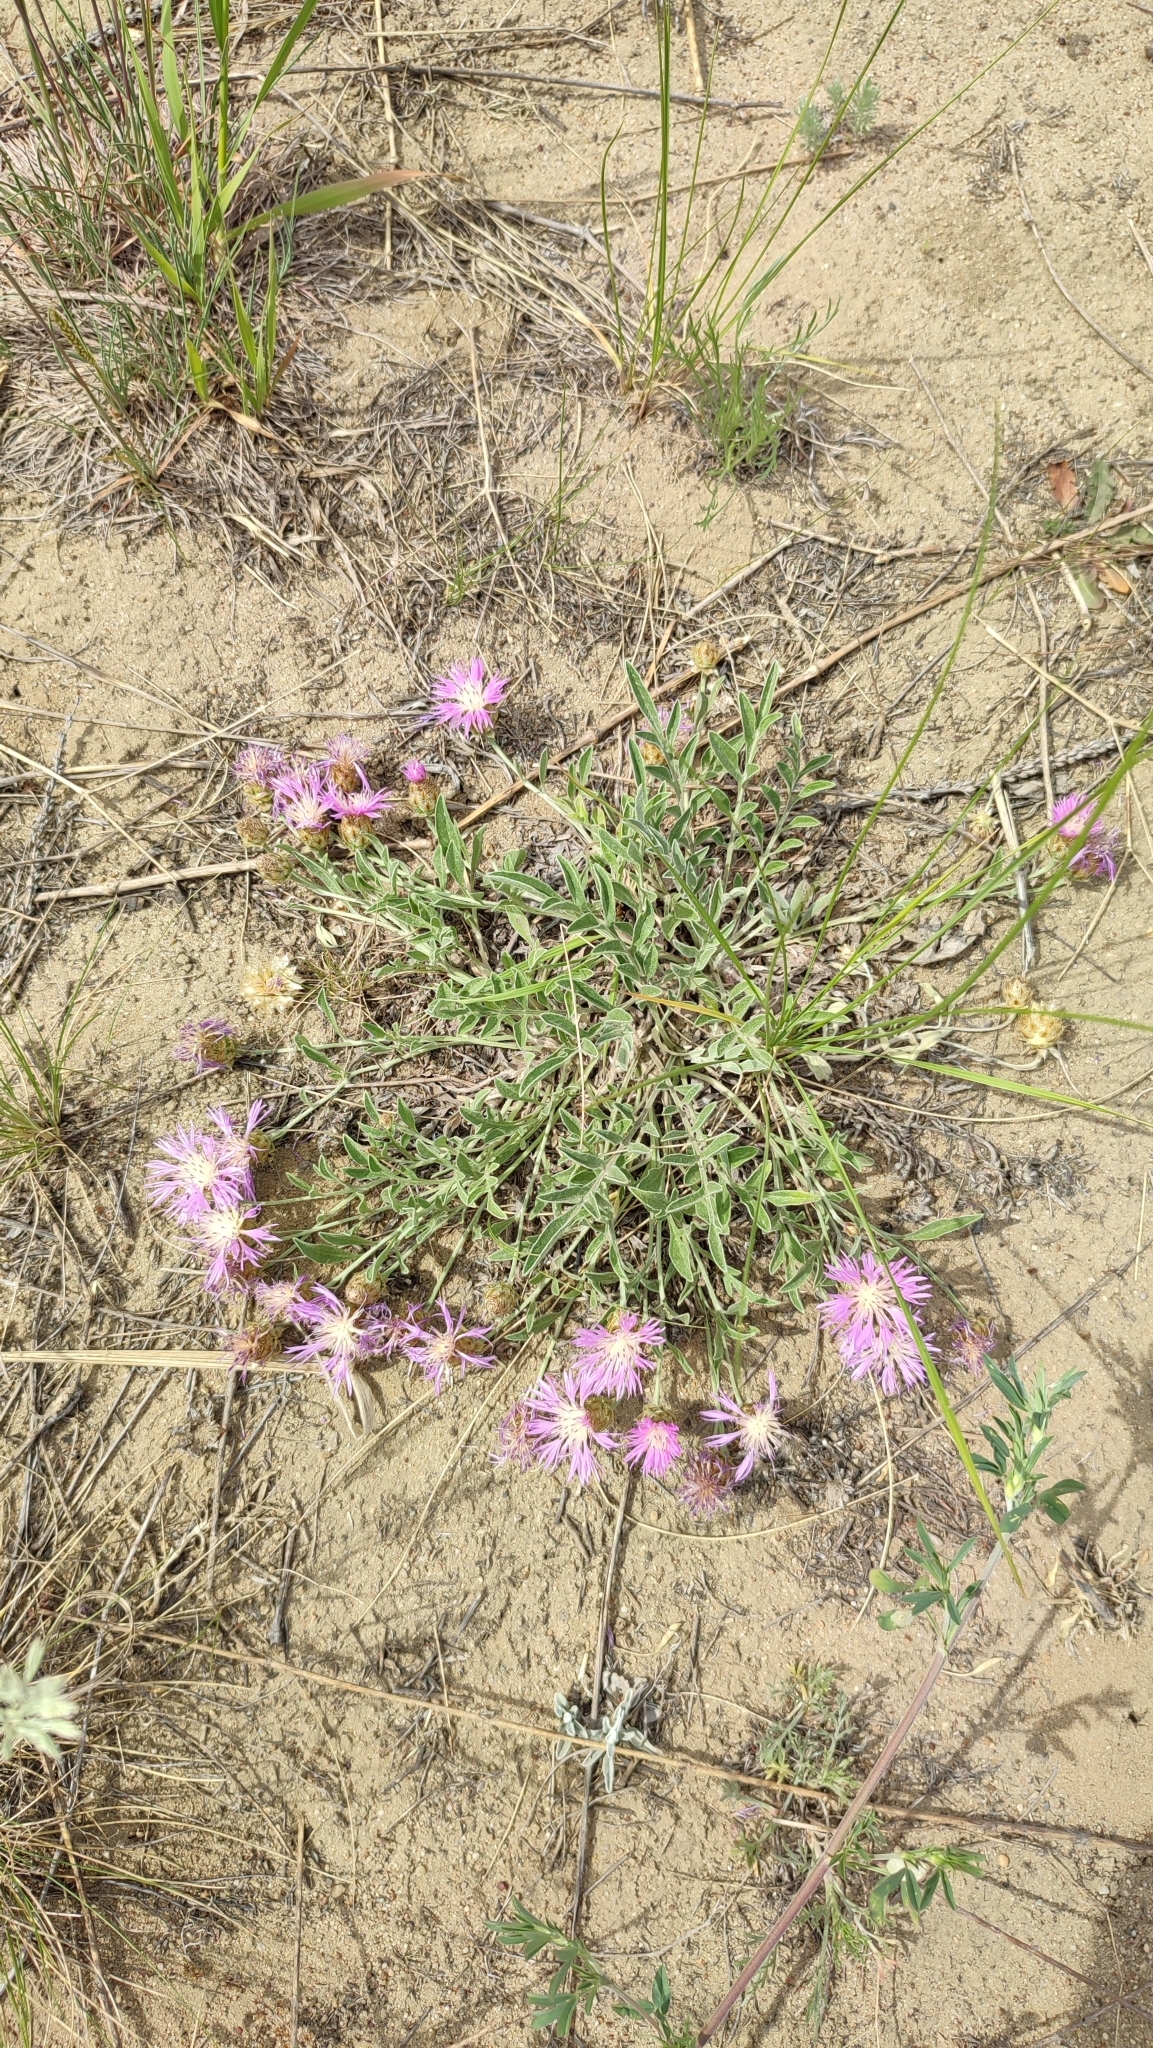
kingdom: Plantae
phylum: Tracheophyta
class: Magnoliopsida
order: Asterales
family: Asteraceae
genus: Psephellus
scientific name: Psephellus turgaicus
